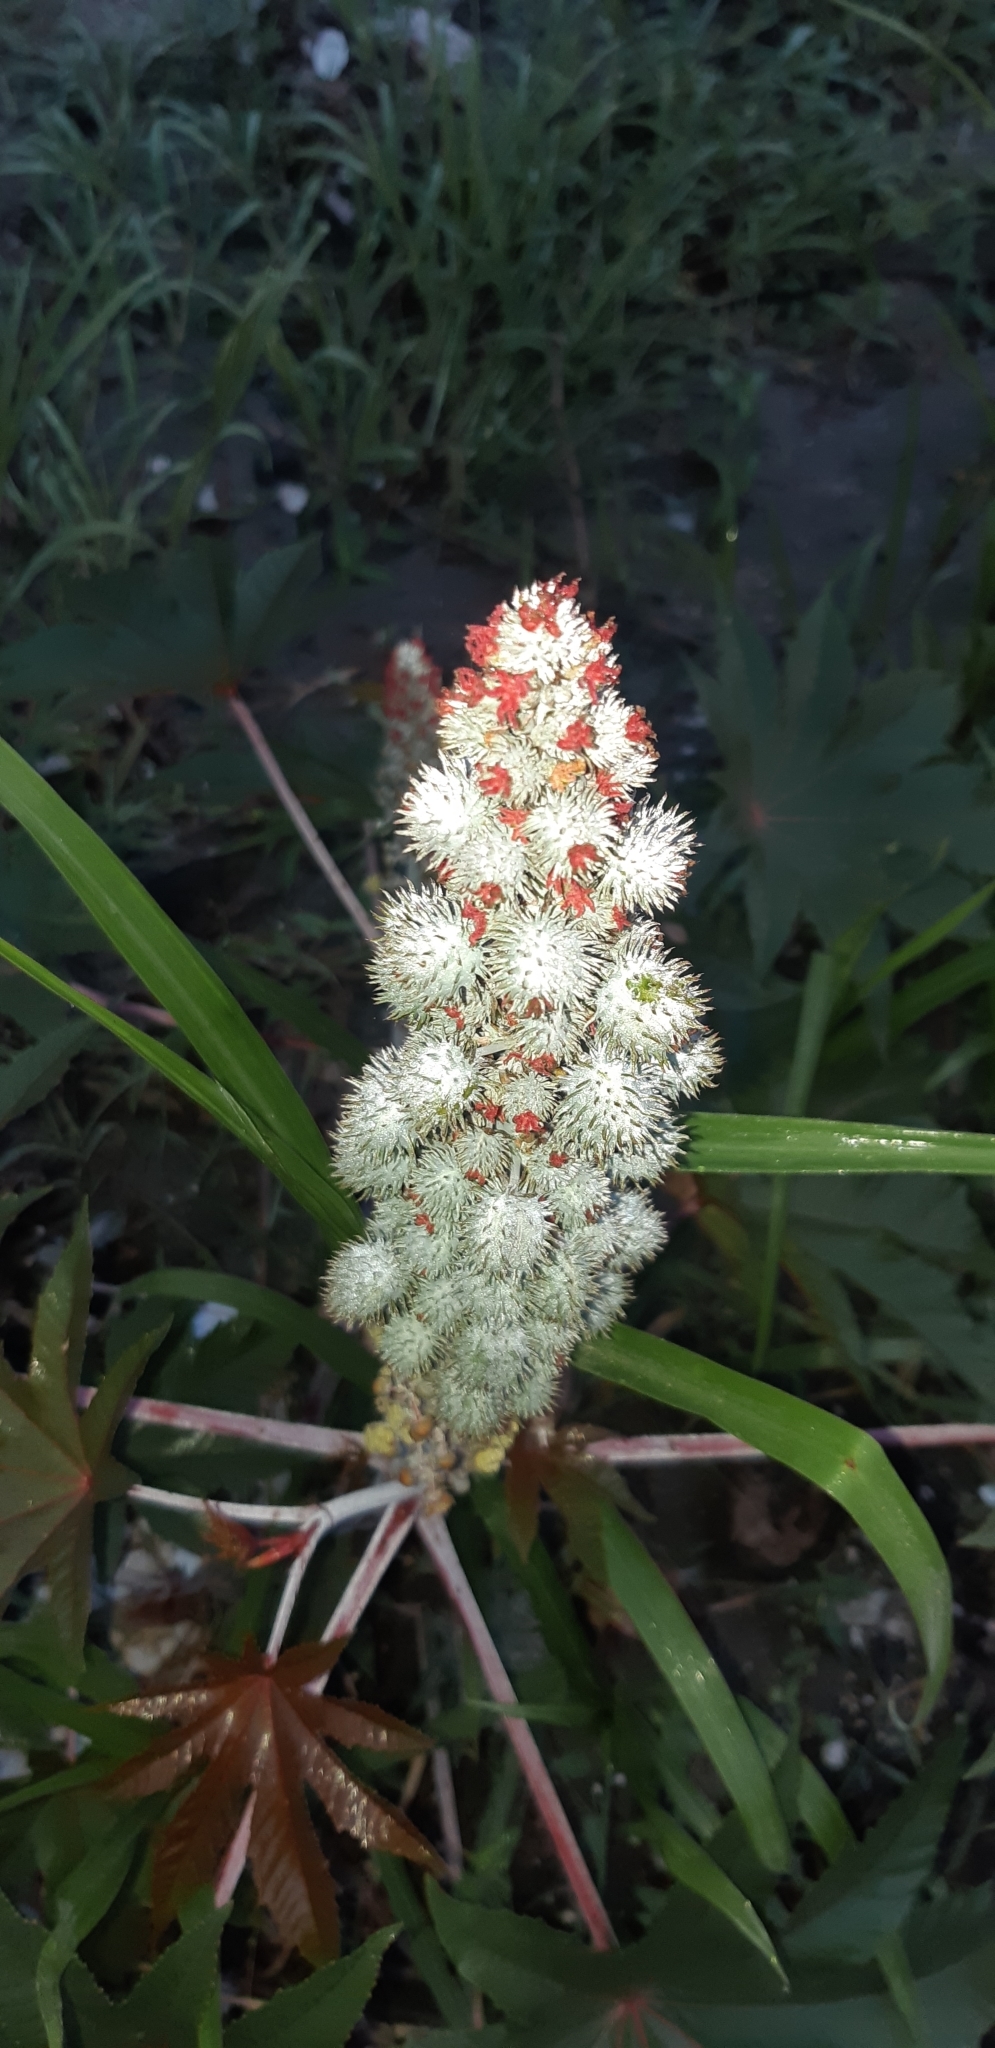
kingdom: Plantae
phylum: Tracheophyta
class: Magnoliopsida
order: Malpighiales
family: Euphorbiaceae
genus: Ricinus
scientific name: Ricinus communis
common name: Castor-oil-plant
